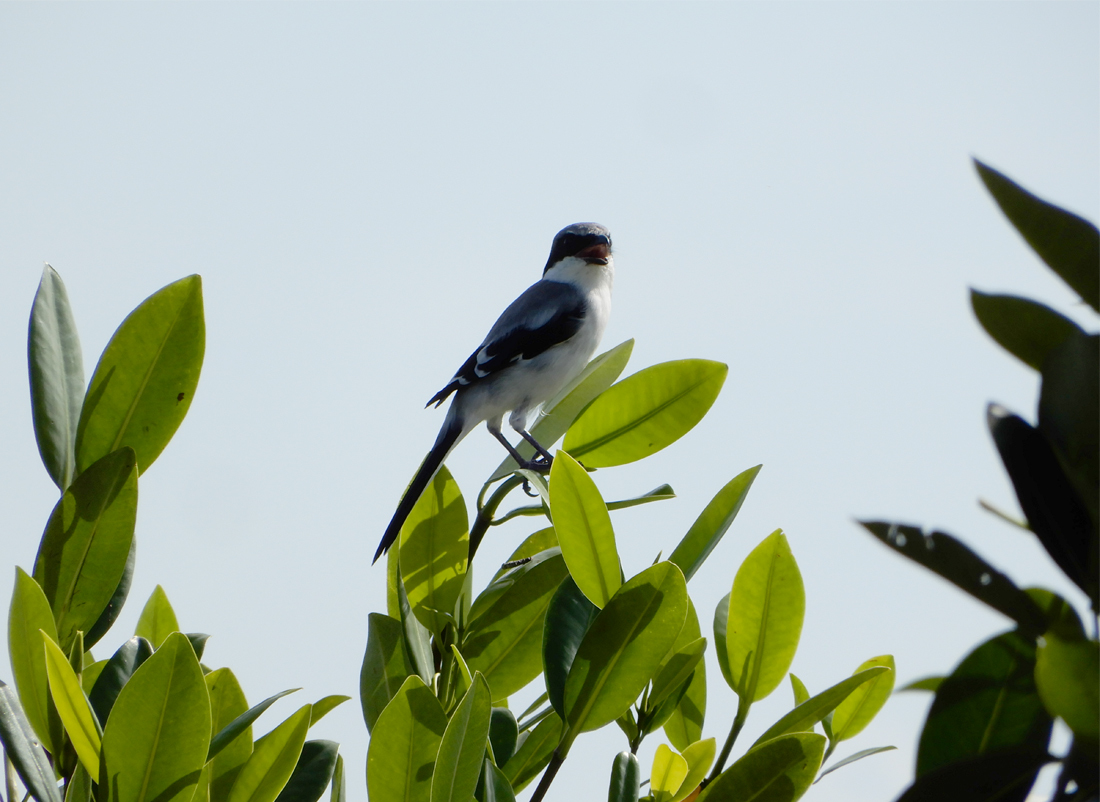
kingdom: Animalia
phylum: Chordata
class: Aves
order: Passeriformes
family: Laniidae
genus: Lanius
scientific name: Lanius ludovicianus
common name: Loggerhead shrike
